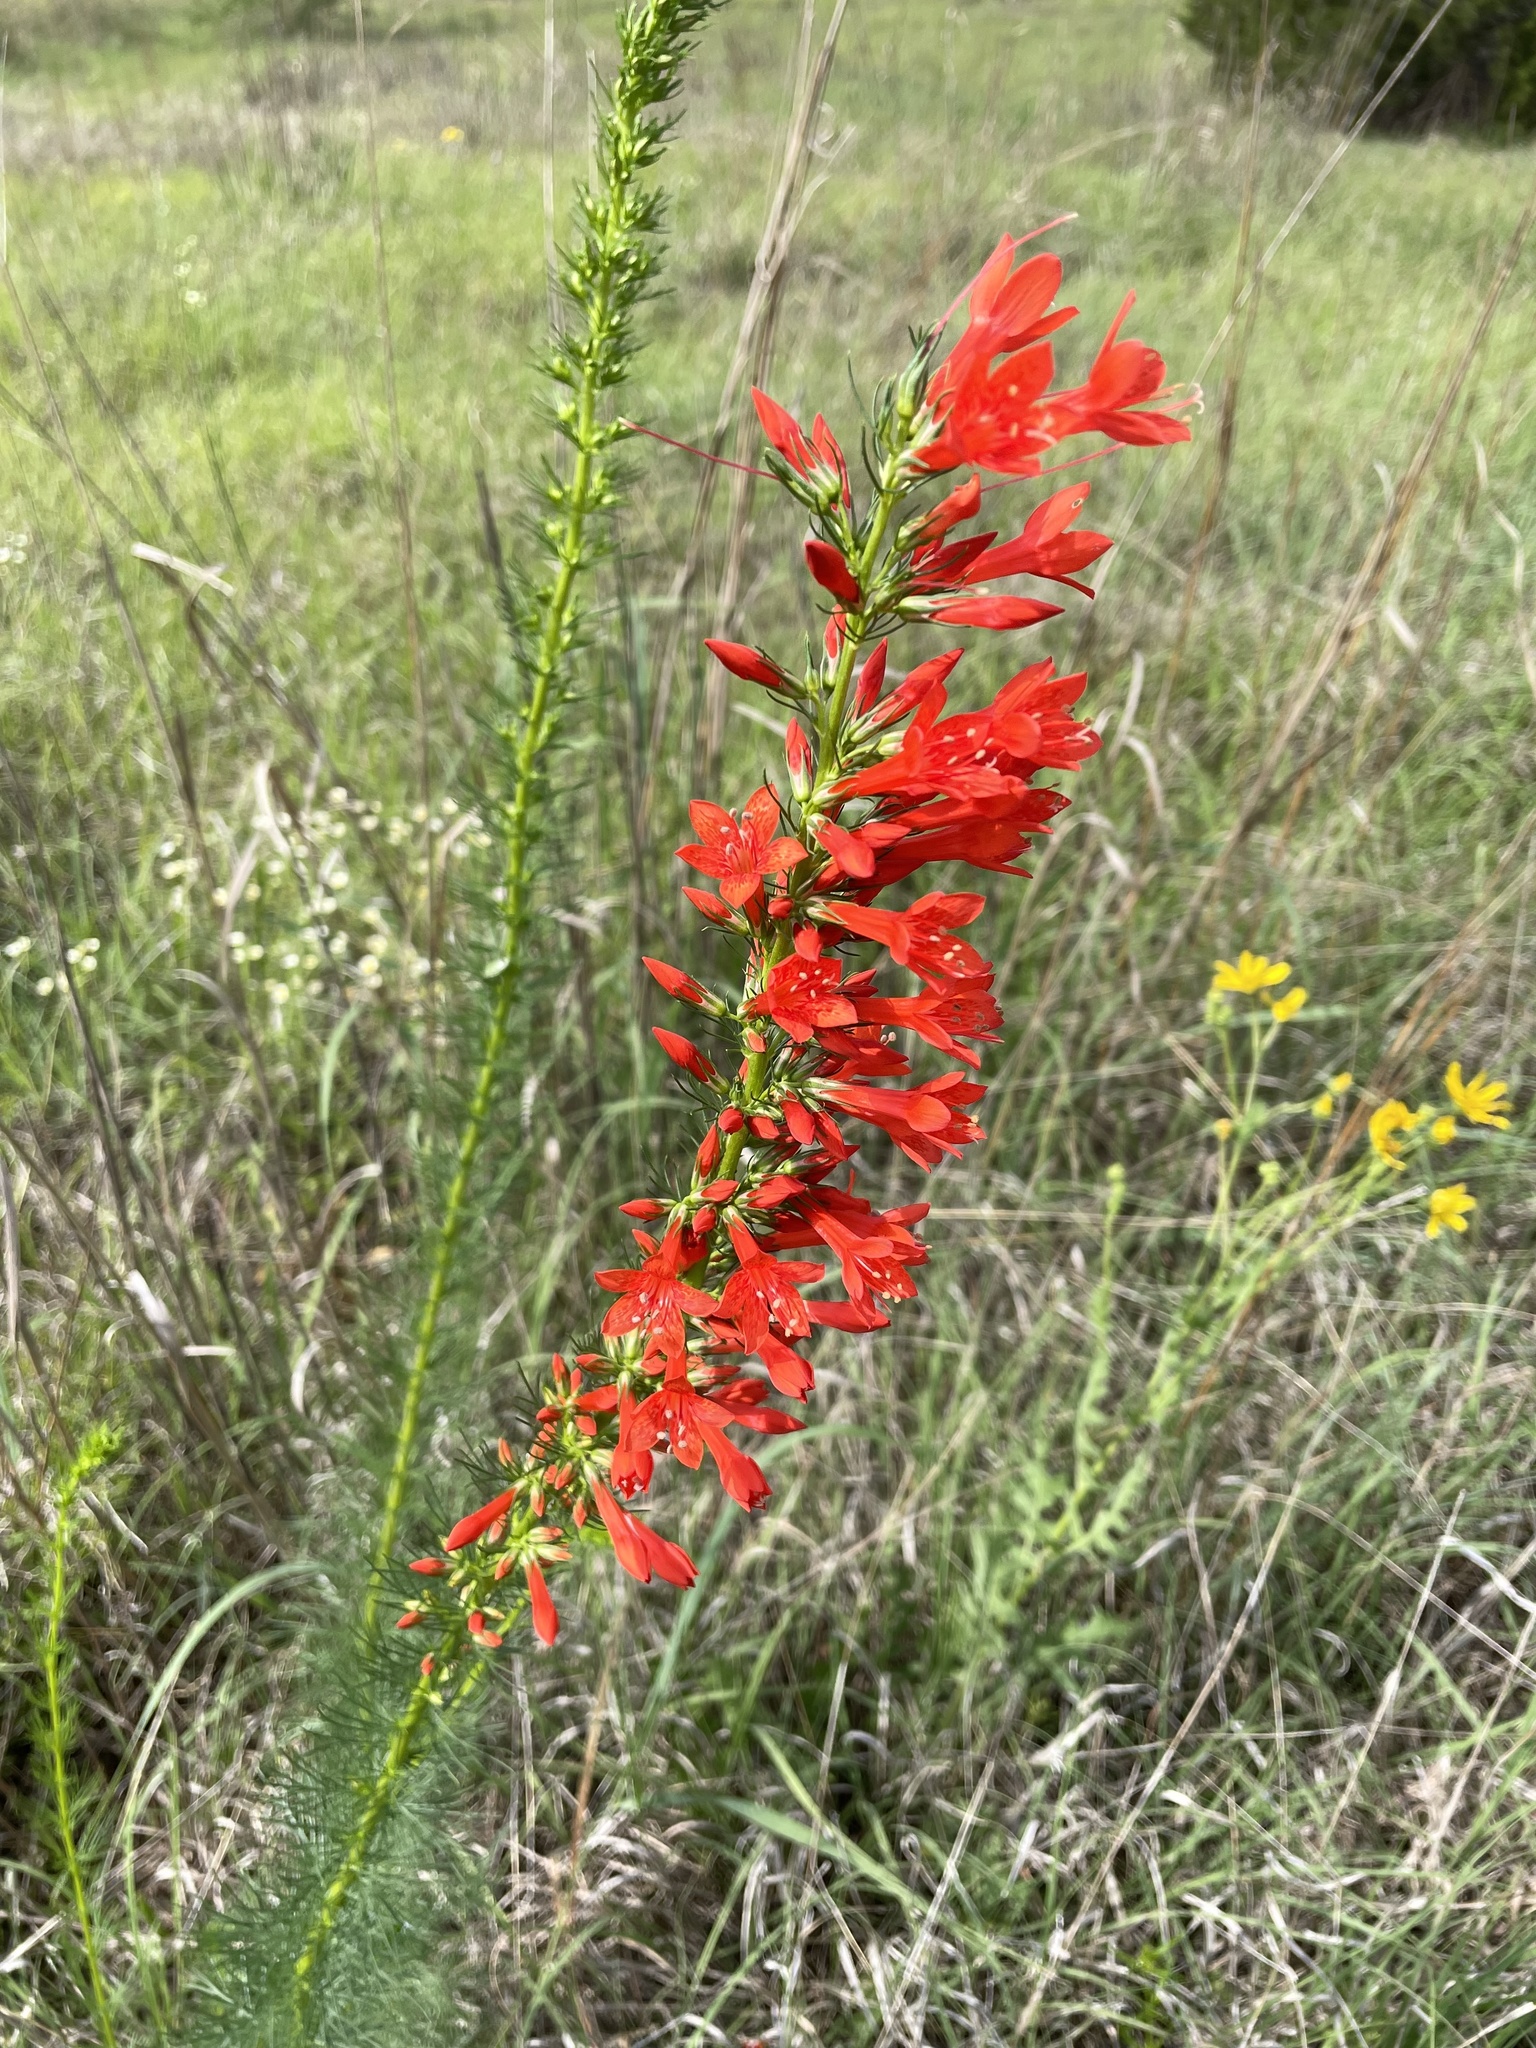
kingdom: Plantae
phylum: Tracheophyta
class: Magnoliopsida
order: Ericales
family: Polemoniaceae
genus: Ipomopsis
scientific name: Ipomopsis rubra
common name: Skyrocket
